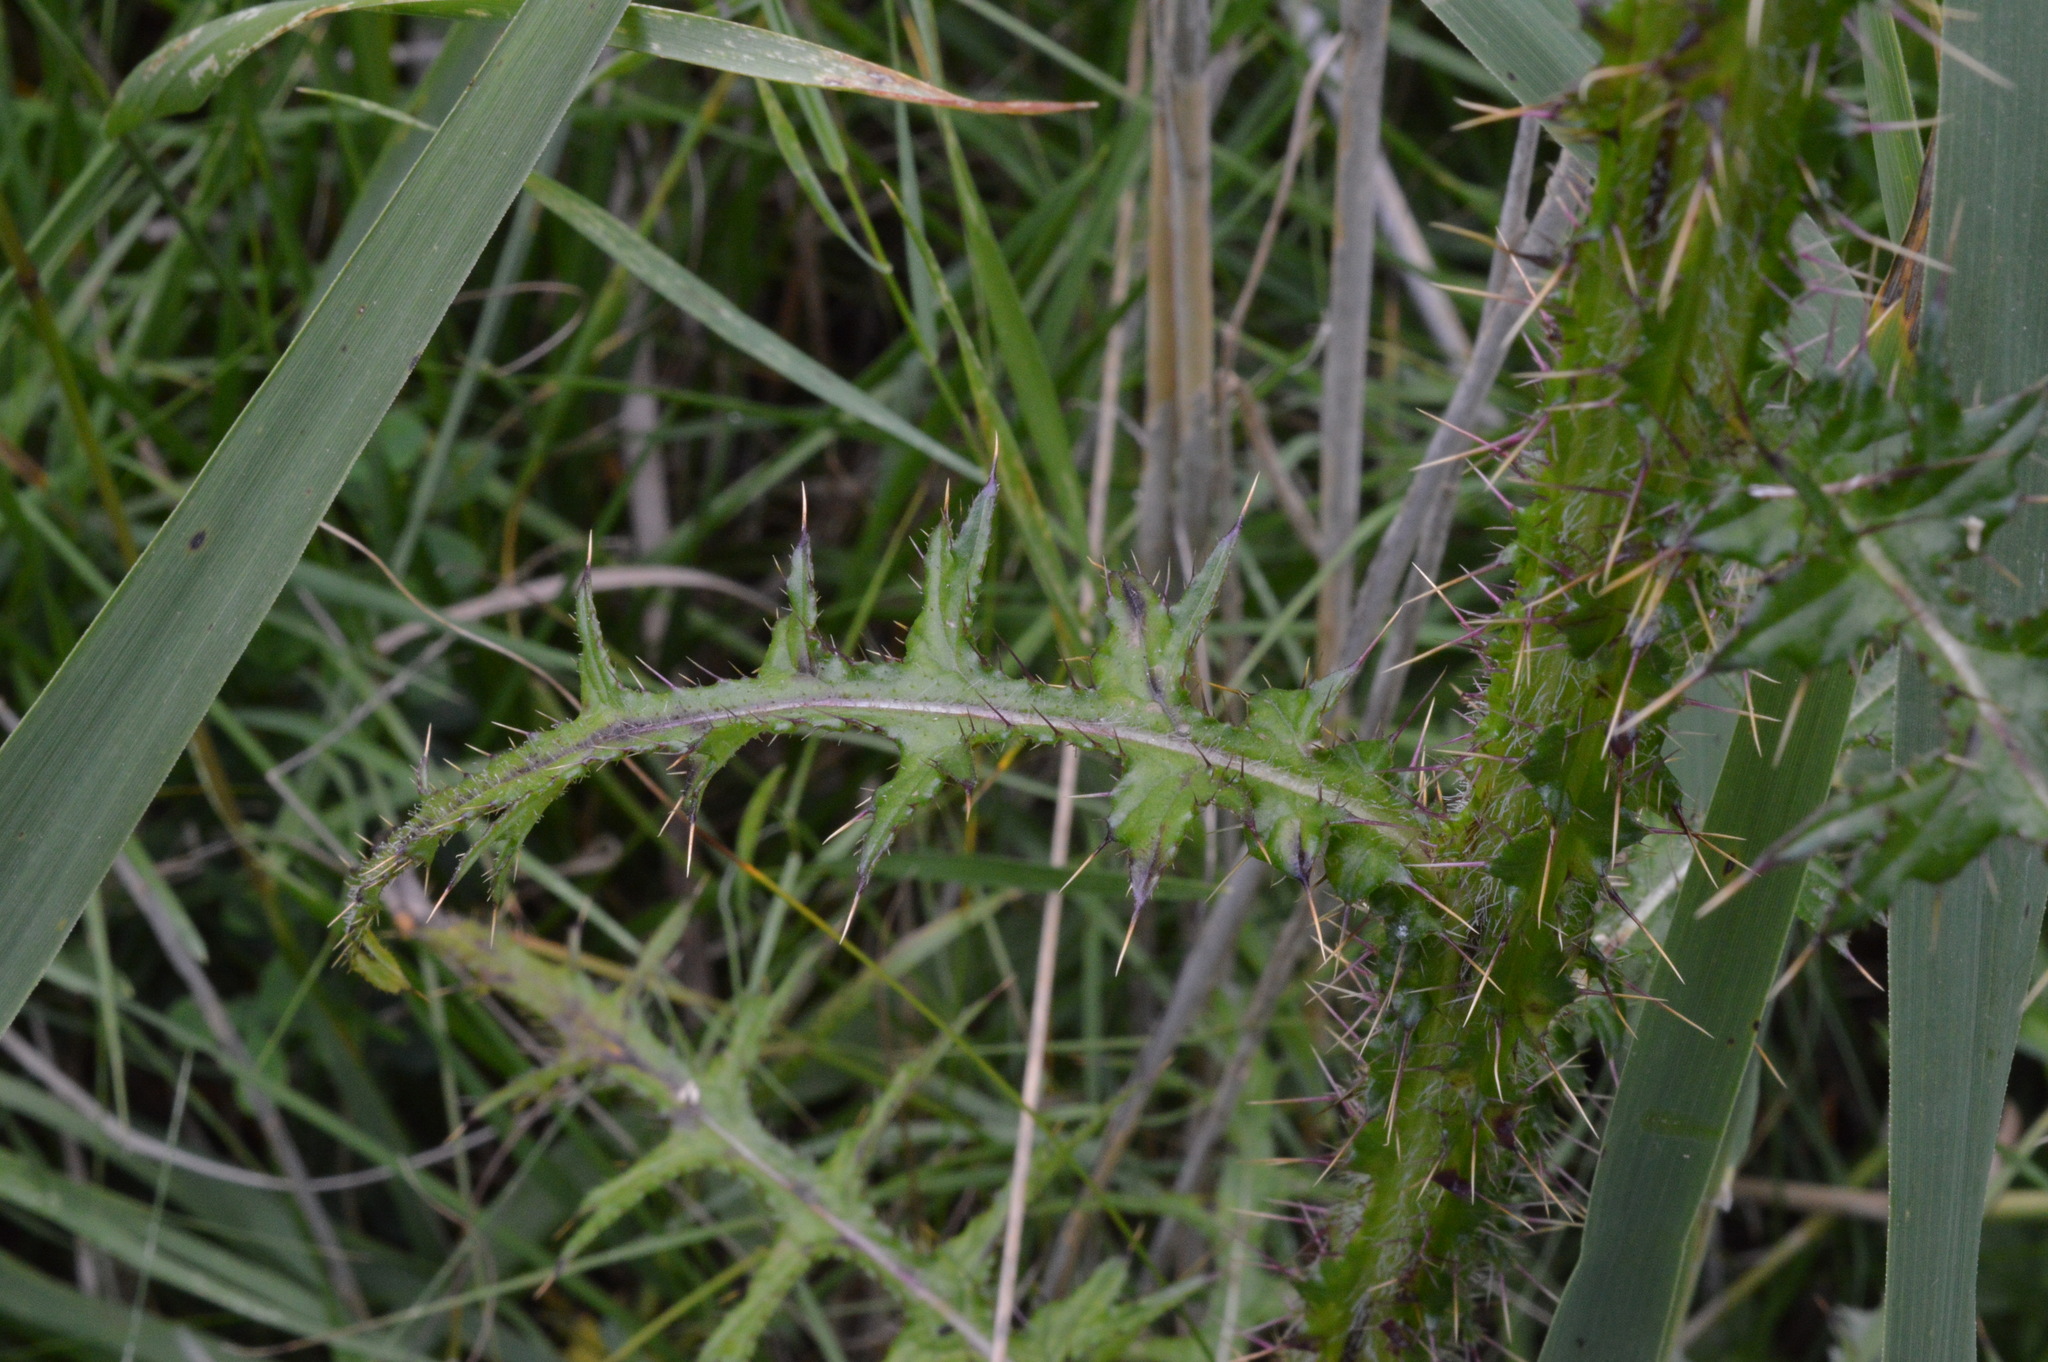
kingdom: Plantae
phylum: Tracheophyta
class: Magnoliopsida
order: Asterales
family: Asteraceae
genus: Cirsium
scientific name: Cirsium palustre
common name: Marsh thistle
